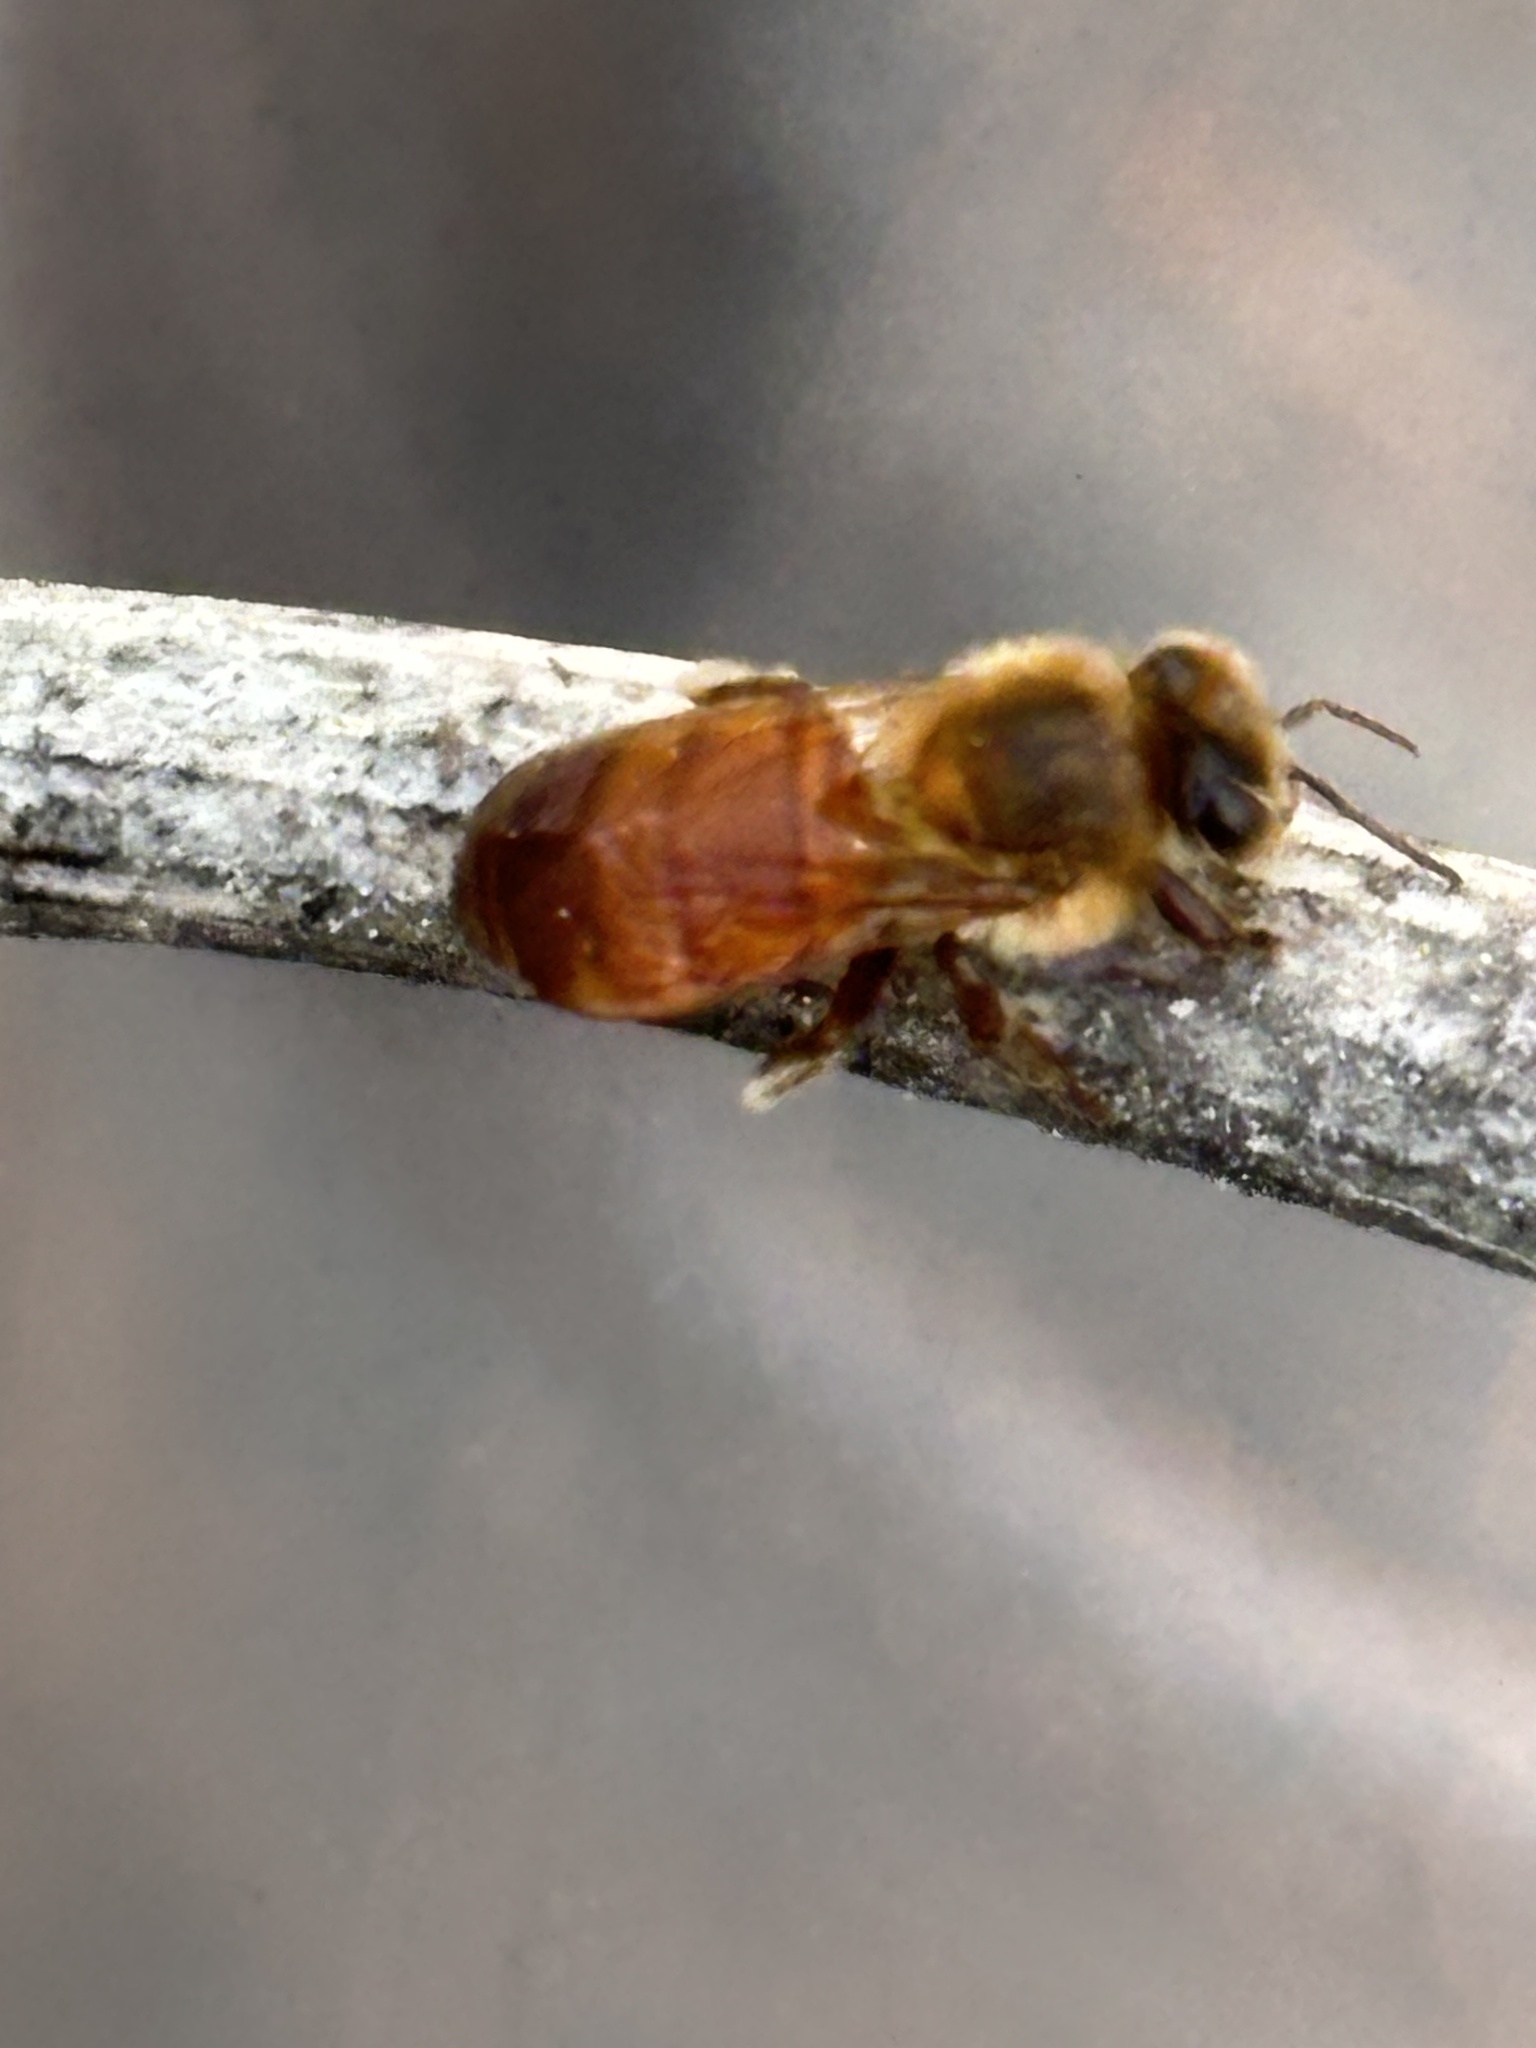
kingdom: Animalia
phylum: Arthropoda
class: Insecta
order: Hymenoptera
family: Apidae
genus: Apis
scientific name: Apis mellifera
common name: Honey bee
